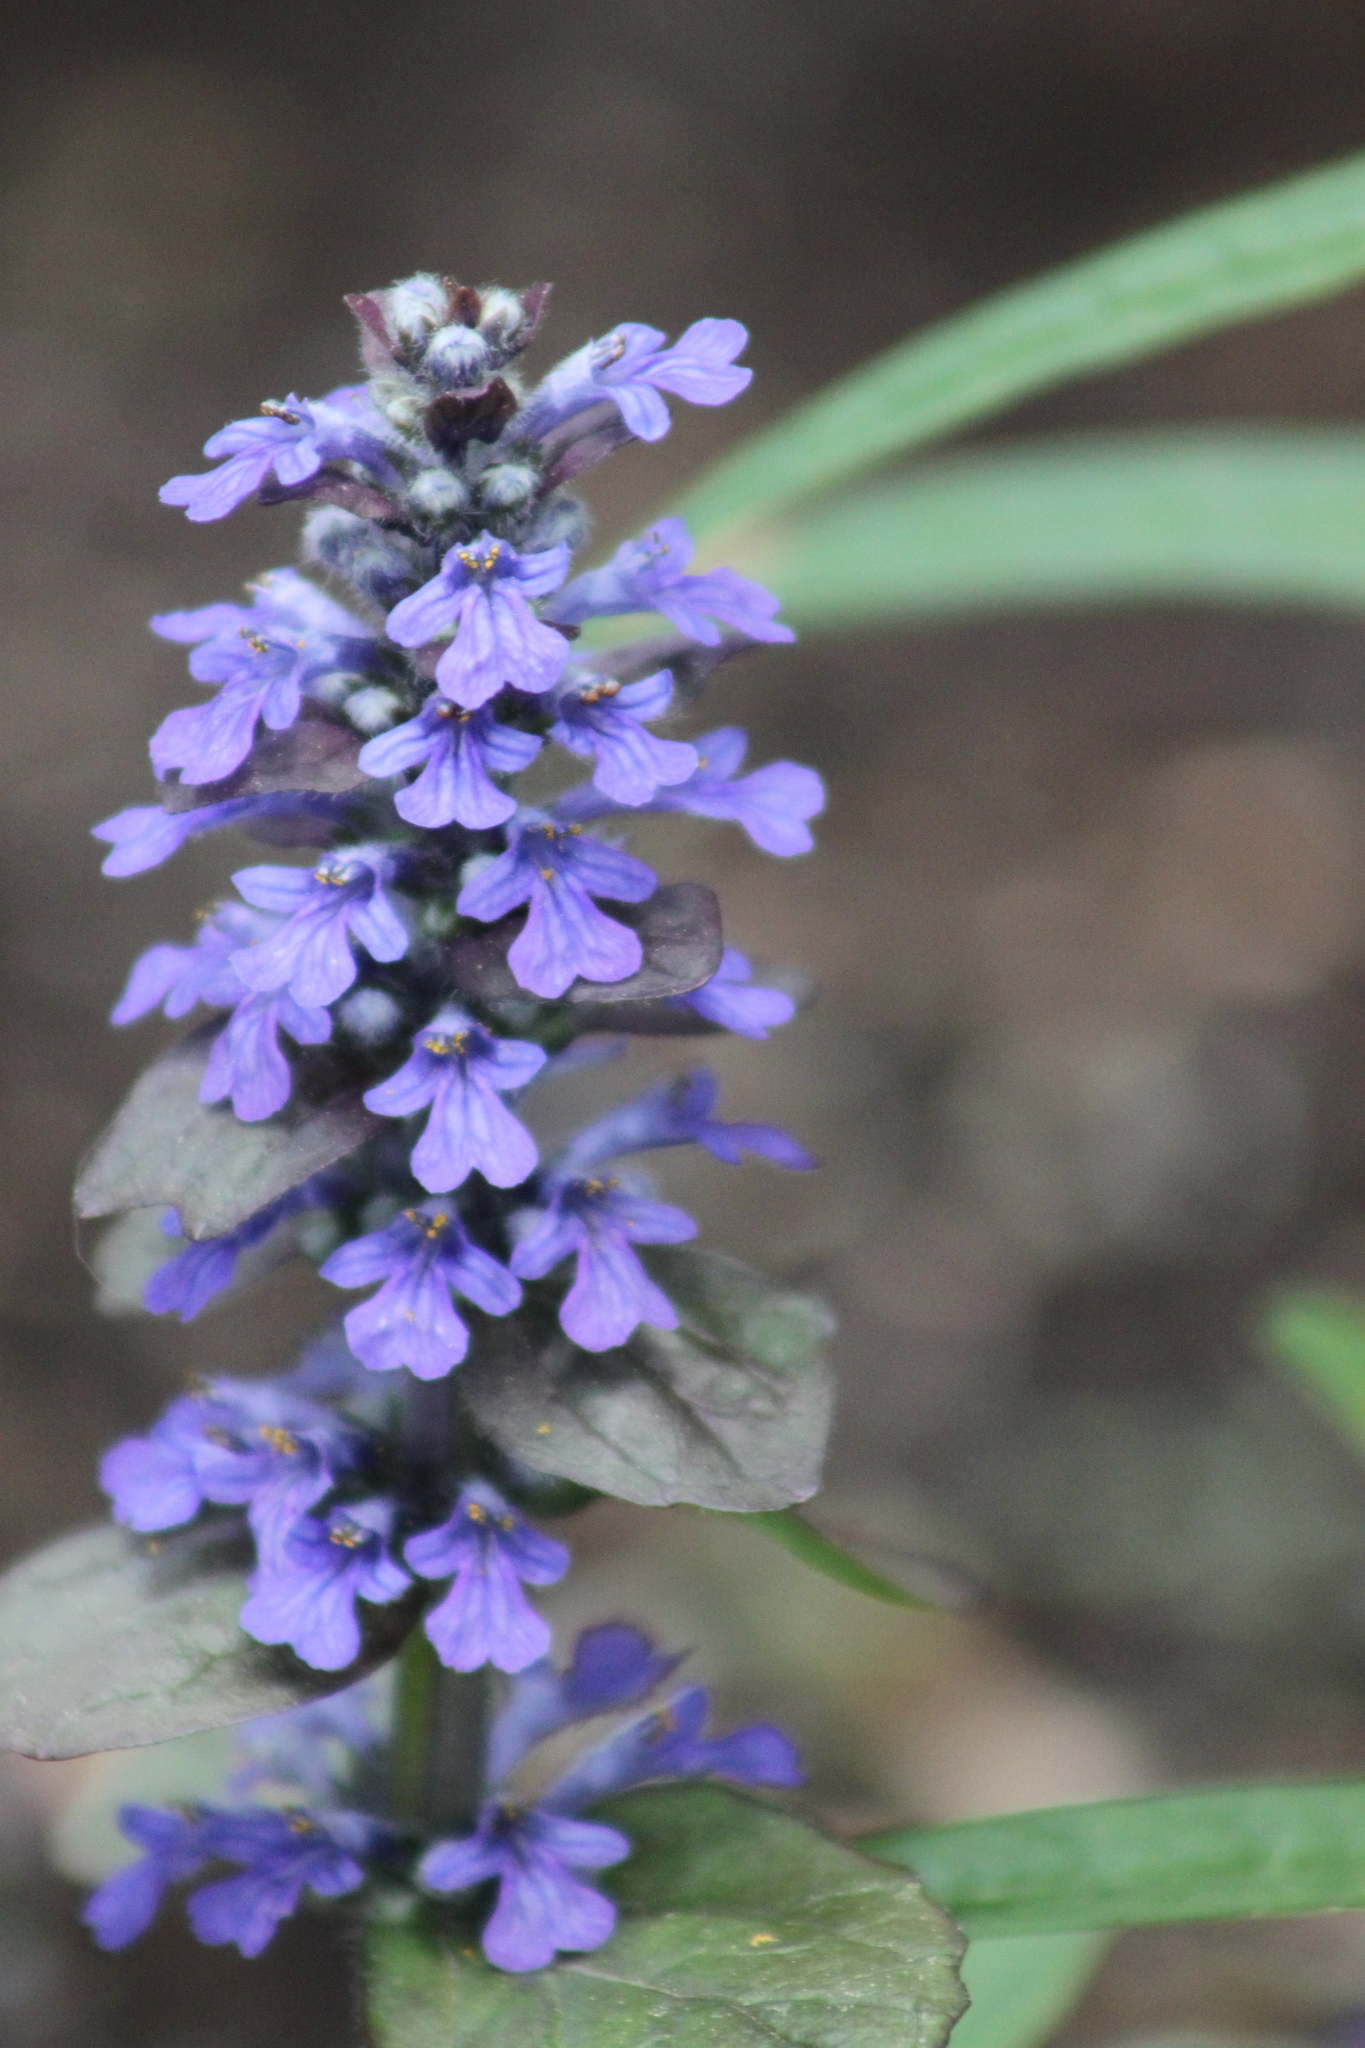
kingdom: Plantae
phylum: Tracheophyta
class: Magnoliopsida
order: Lamiales
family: Lamiaceae
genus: Ajuga
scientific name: Ajuga reptans
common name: Bugle
